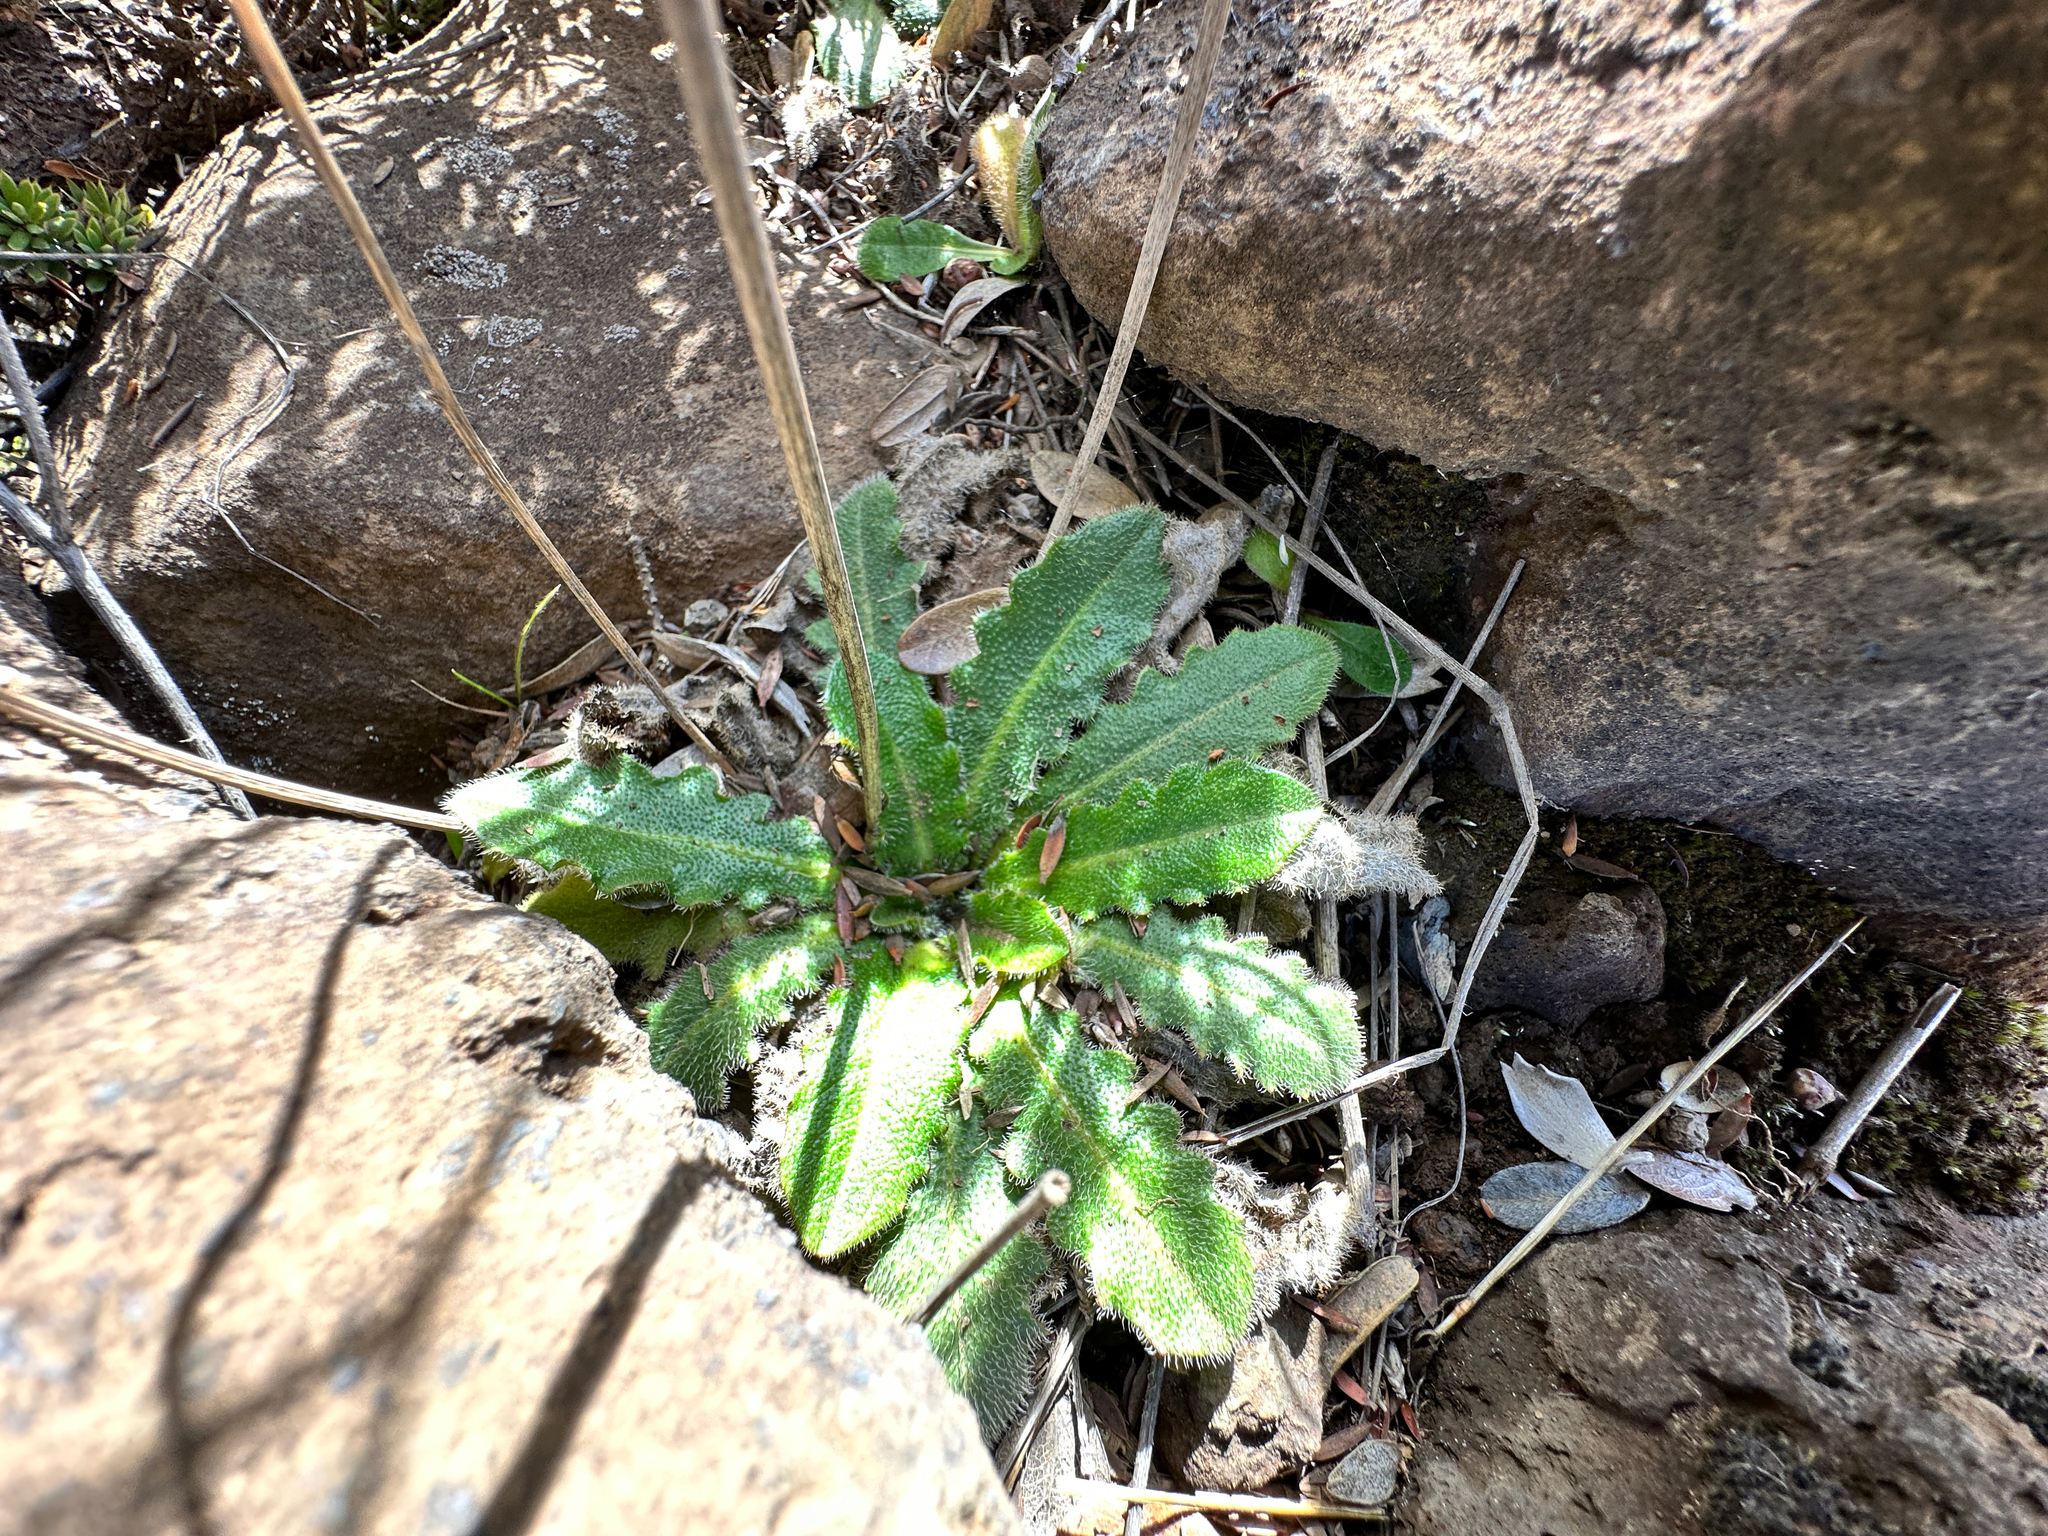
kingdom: Plantae
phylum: Tracheophyta
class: Magnoliopsida
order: Asterales
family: Asteraceae
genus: Hypochaeris
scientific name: Hypochaeris radicata
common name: Flatweed
